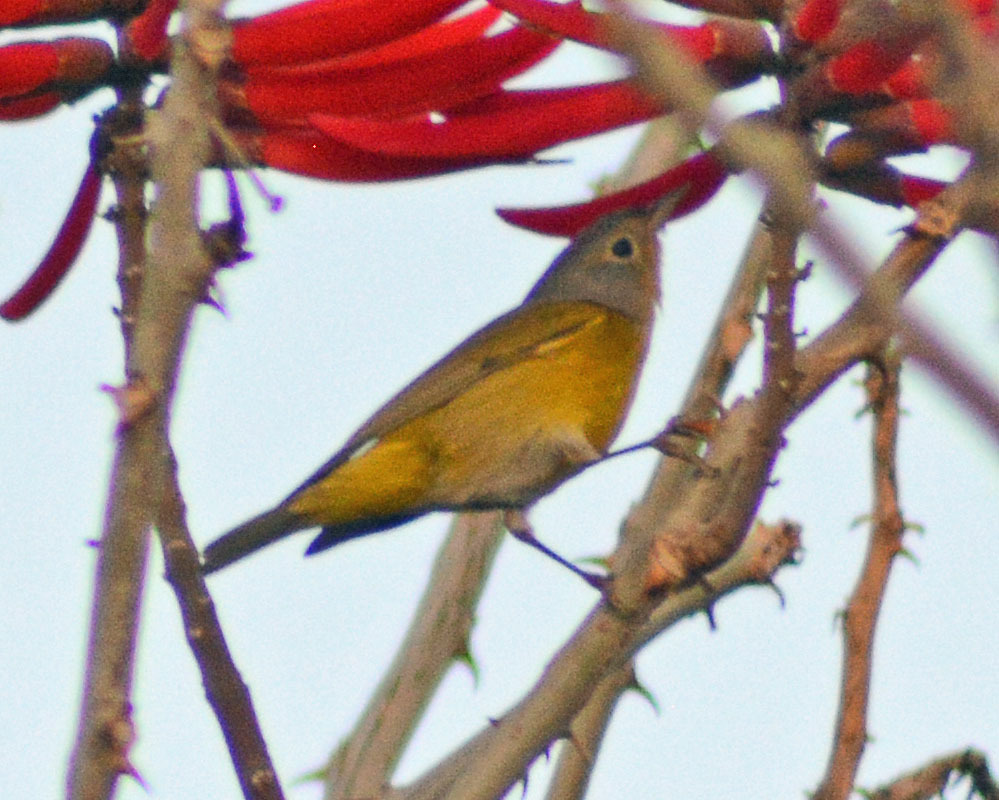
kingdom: Animalia
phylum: Chordata
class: Aves
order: Passeriformes
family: Parulidae
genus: Leiothlypis
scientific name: Leiothlypis ruficapilla
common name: Nashville warbler
